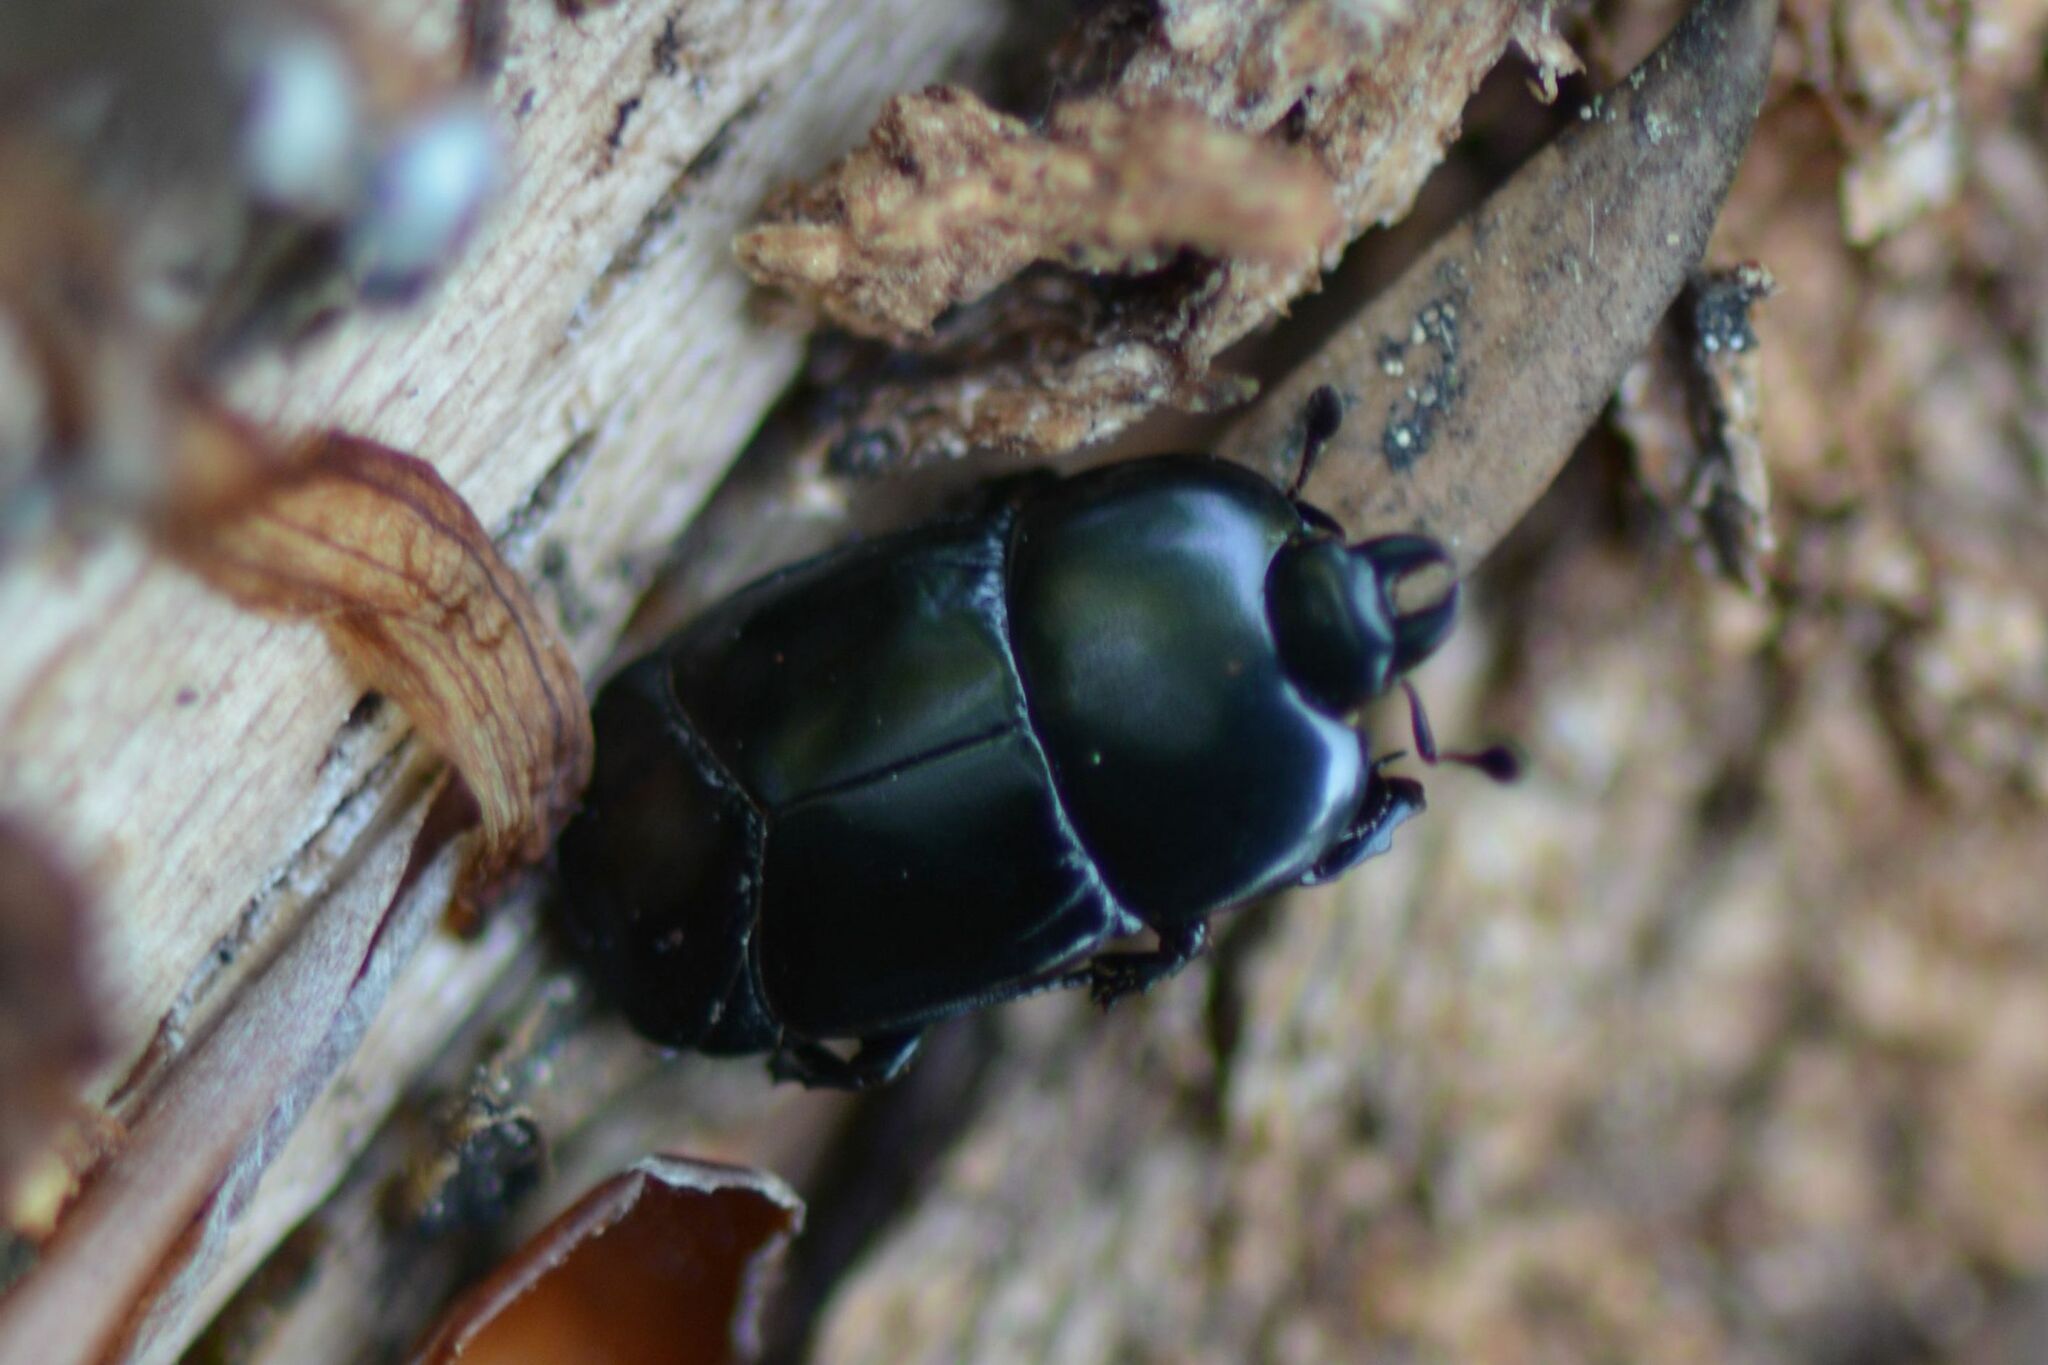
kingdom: Animalia
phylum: Arthropoda
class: Insecta
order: Coleoptera
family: Histeridae
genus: Hololepta
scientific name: Hololepta plana
